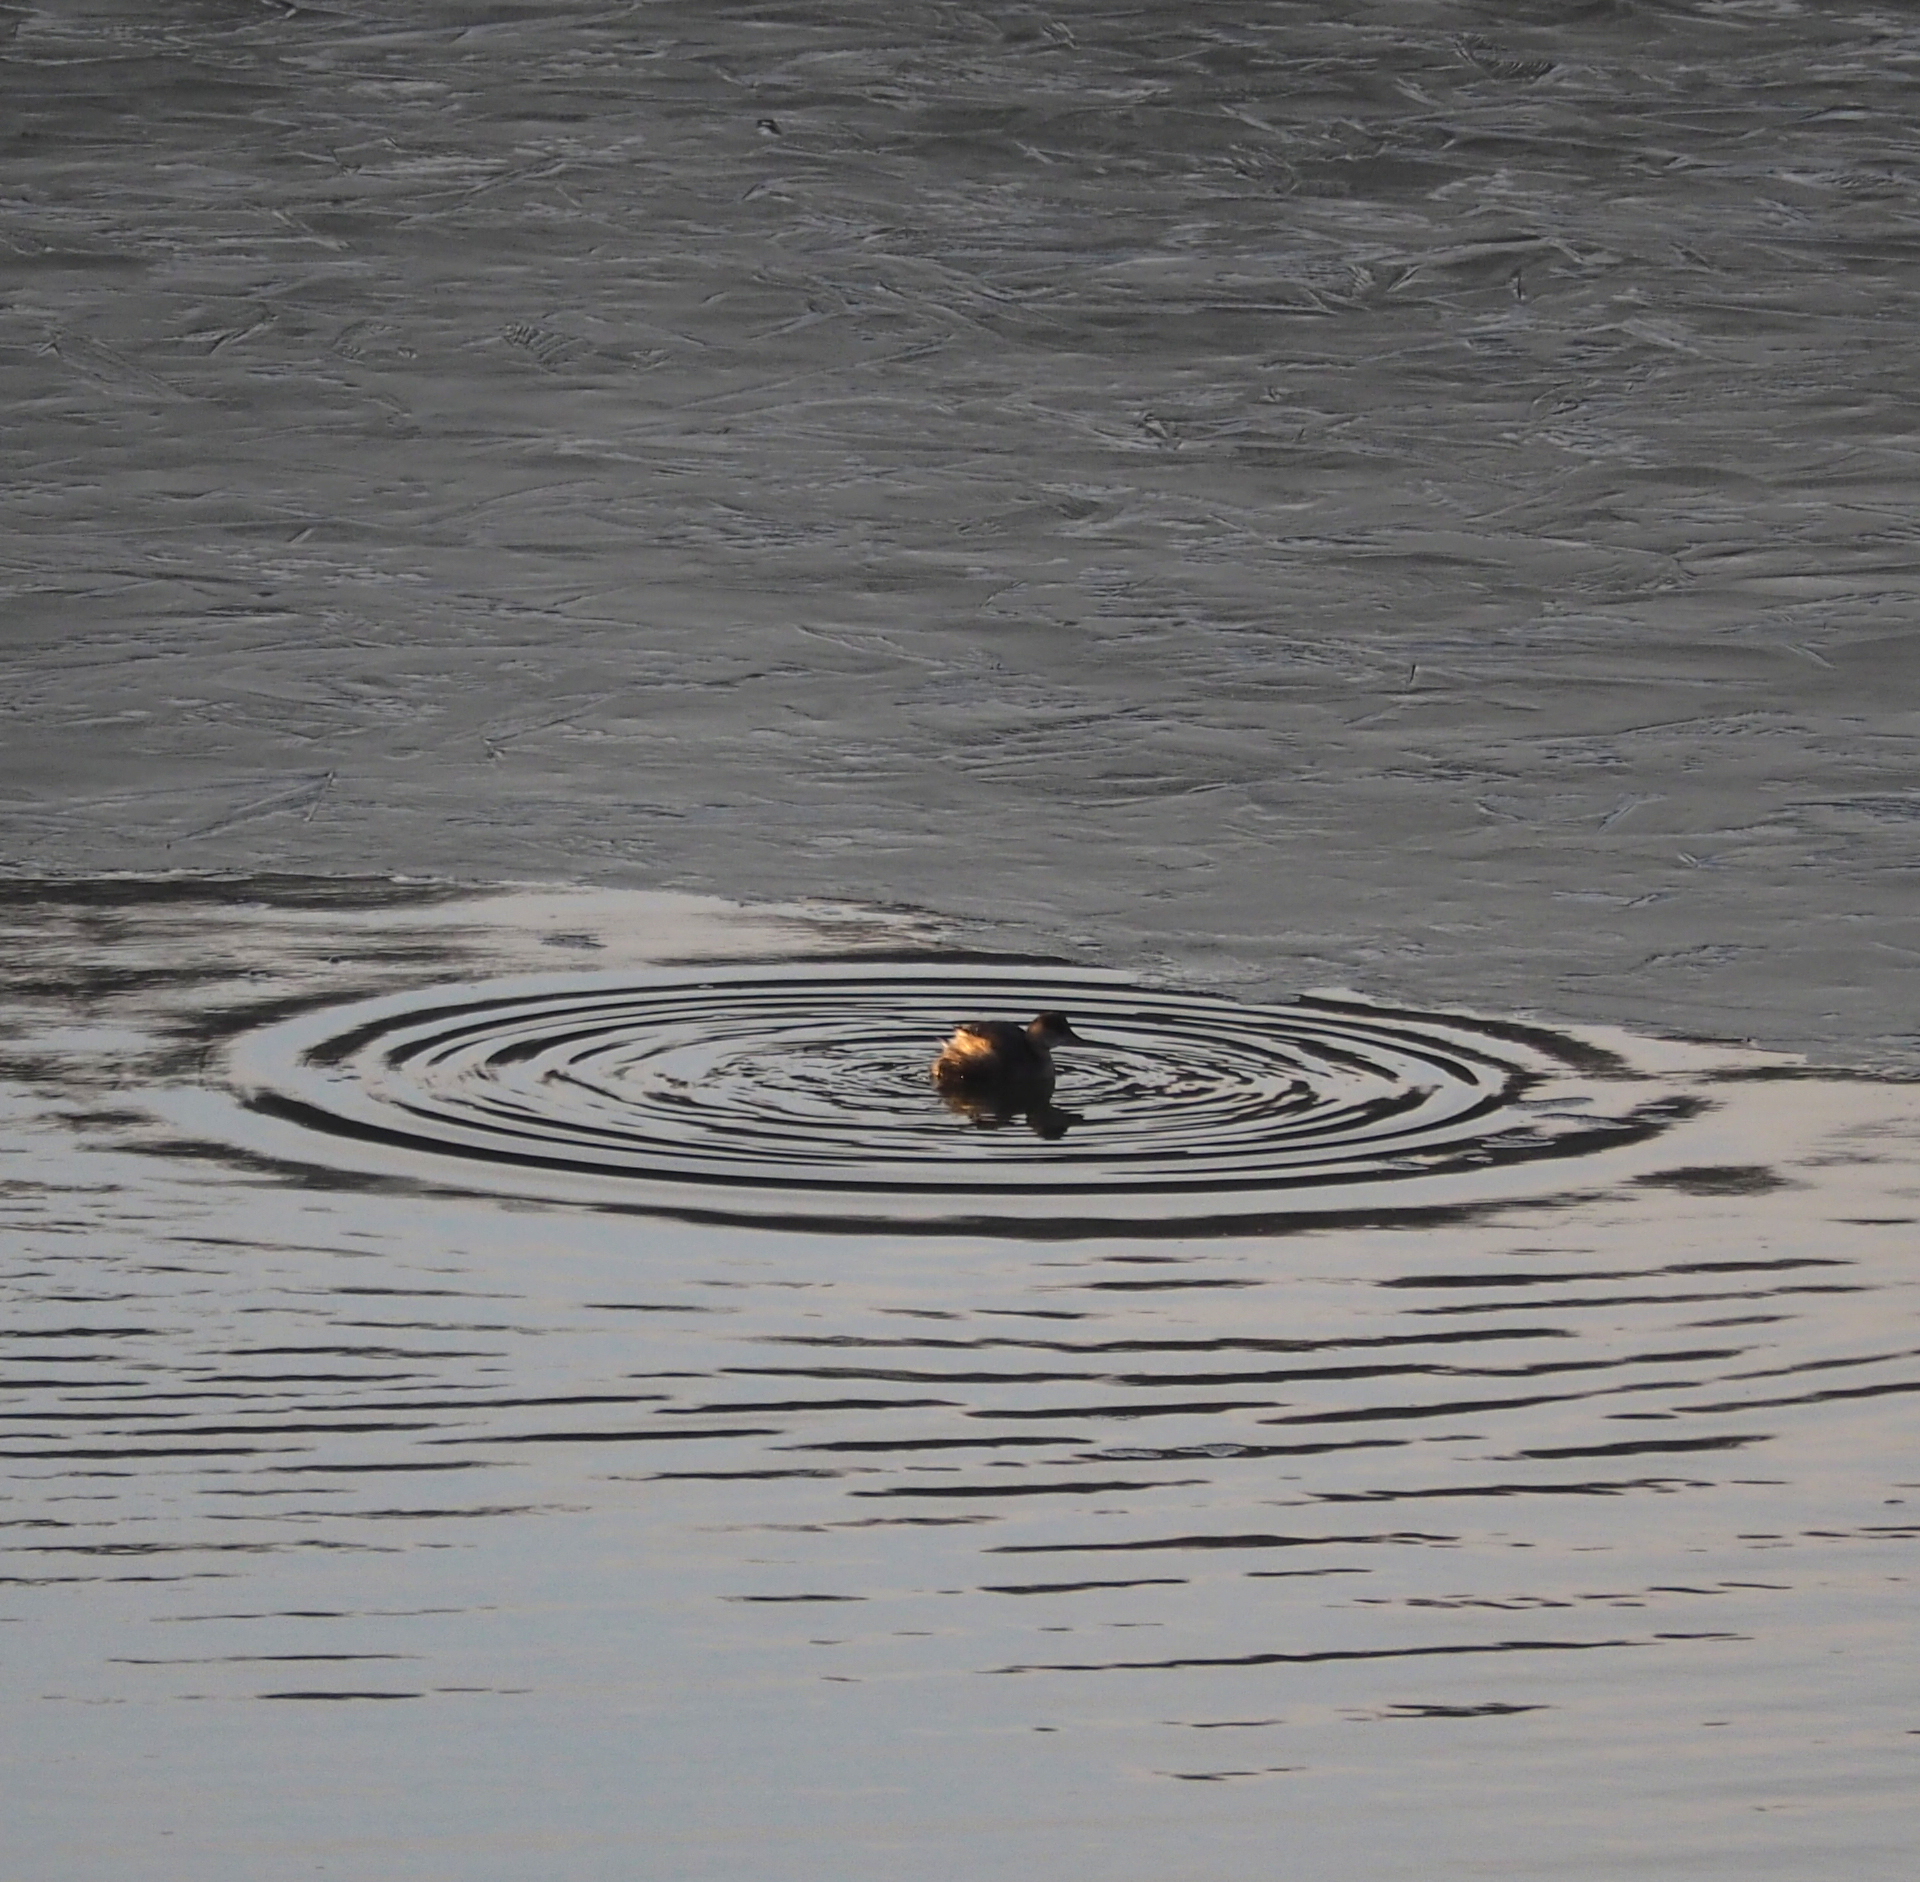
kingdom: Animalia
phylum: Chordata
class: Aves
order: Podicipediformes
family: Podicipedidae
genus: Tachybaptus
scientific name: Tachybaptus ruficollis
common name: Little grebe
